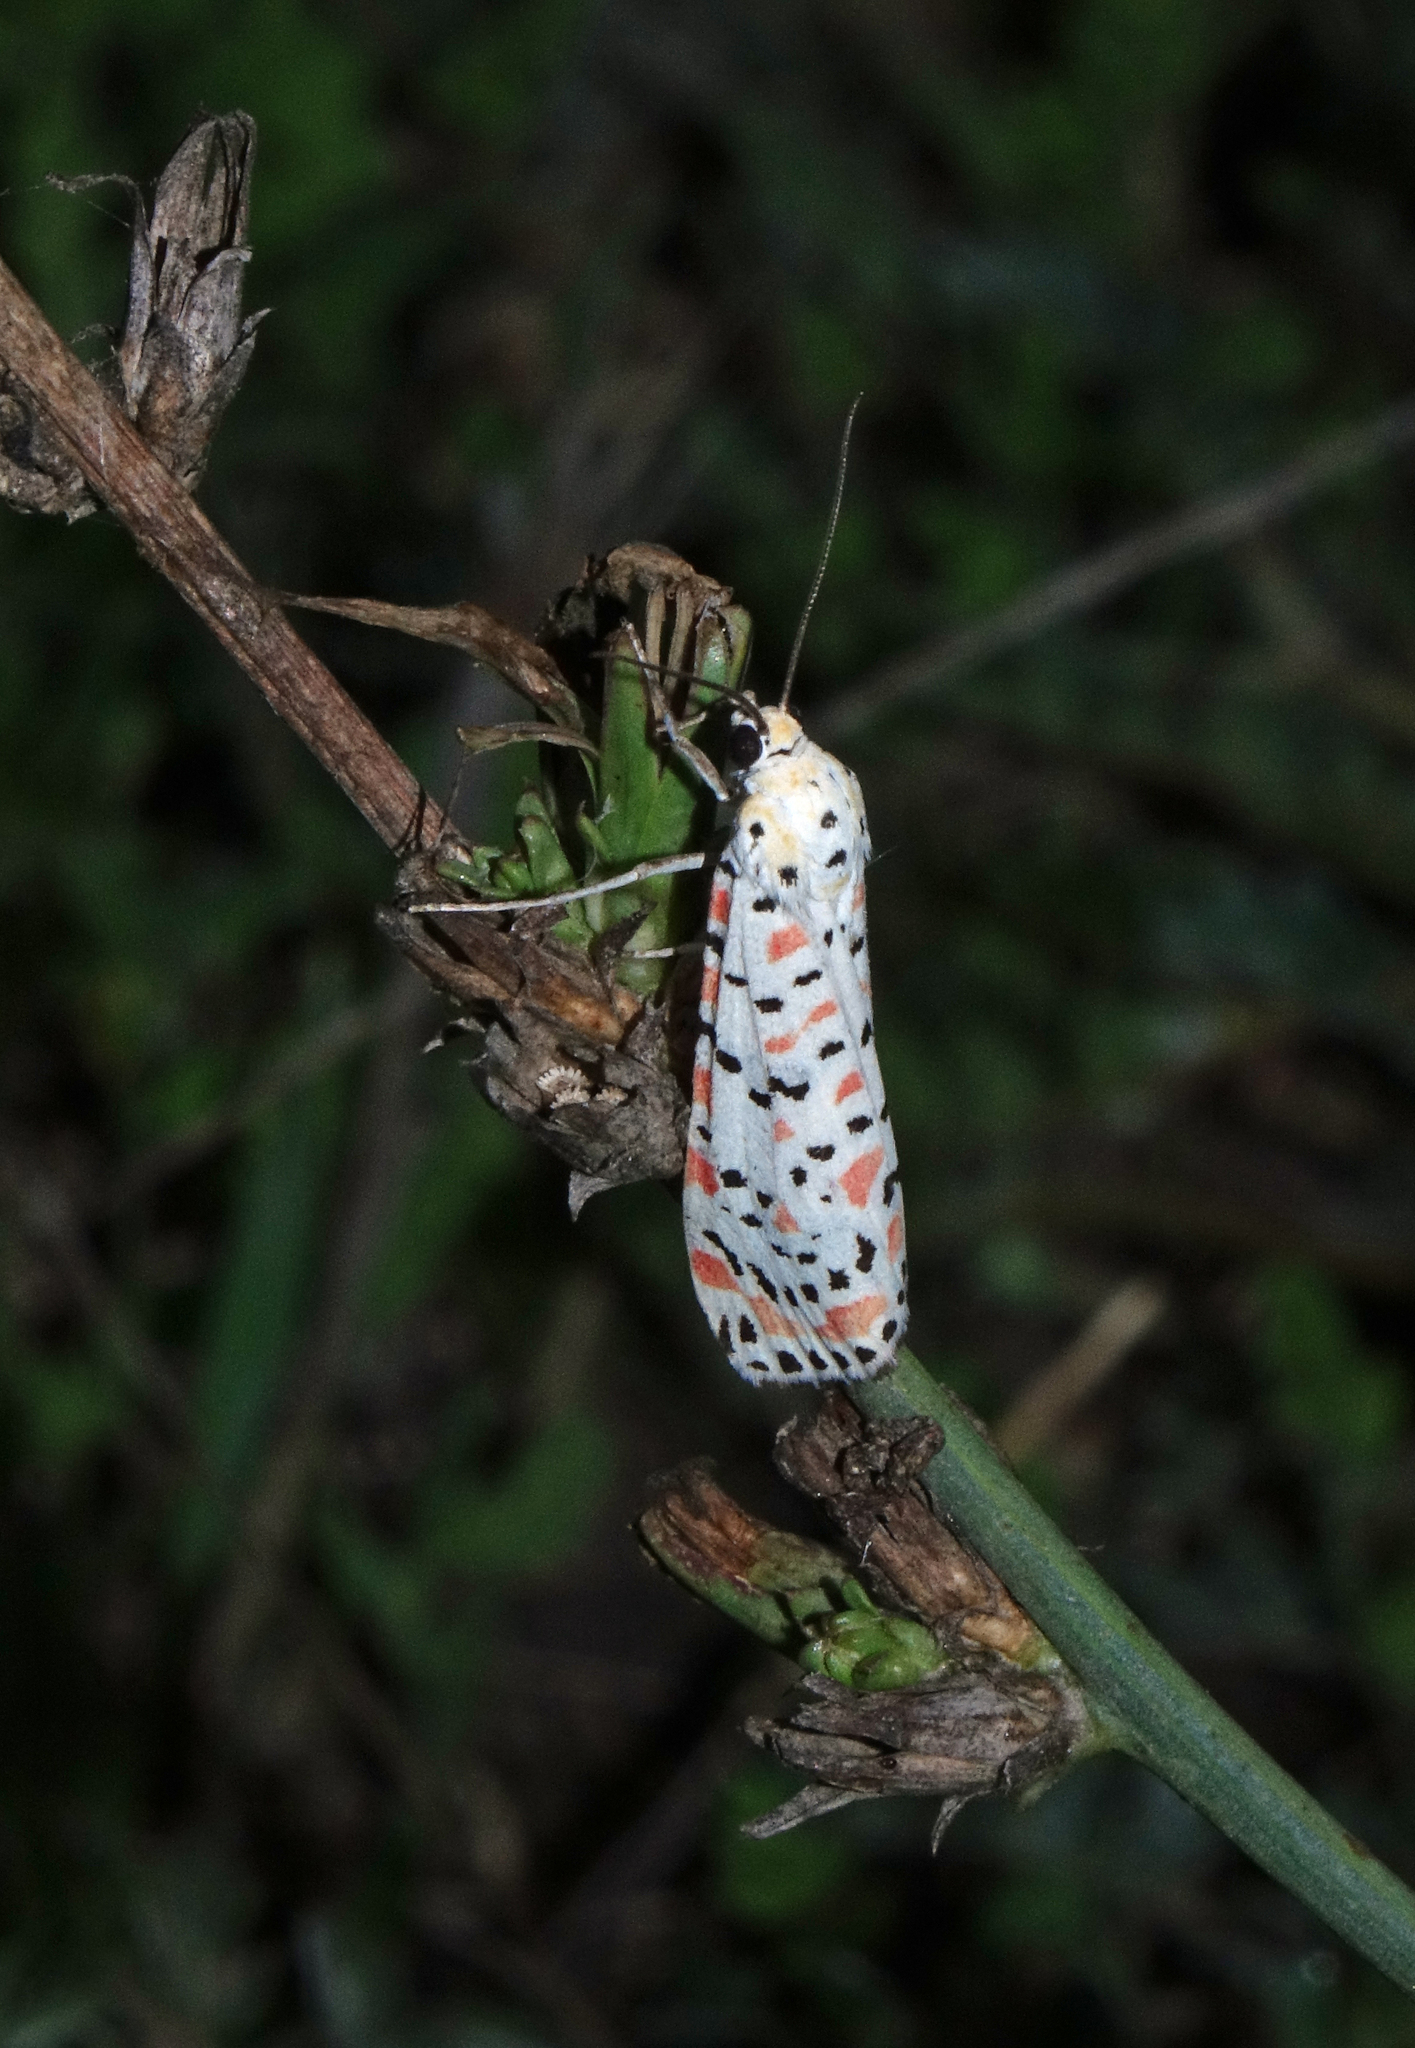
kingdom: Animalia
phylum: Arthropoda
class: Insecta
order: Lepidoptera
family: Erebidae
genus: Utetheisa
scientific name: Utetheisa pulchella
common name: Crimson speckled
